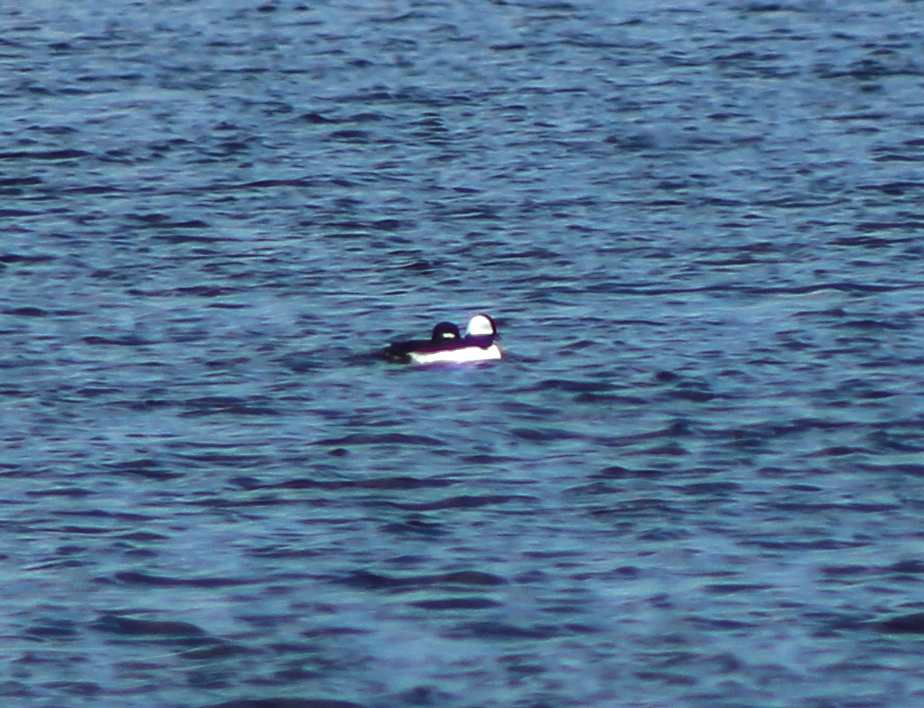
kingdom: Animalia
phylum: Chordata
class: Aves
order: Anseriformes
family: Anatidae
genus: Bucephala
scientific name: Bucephala albeola
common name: Bufflehead
